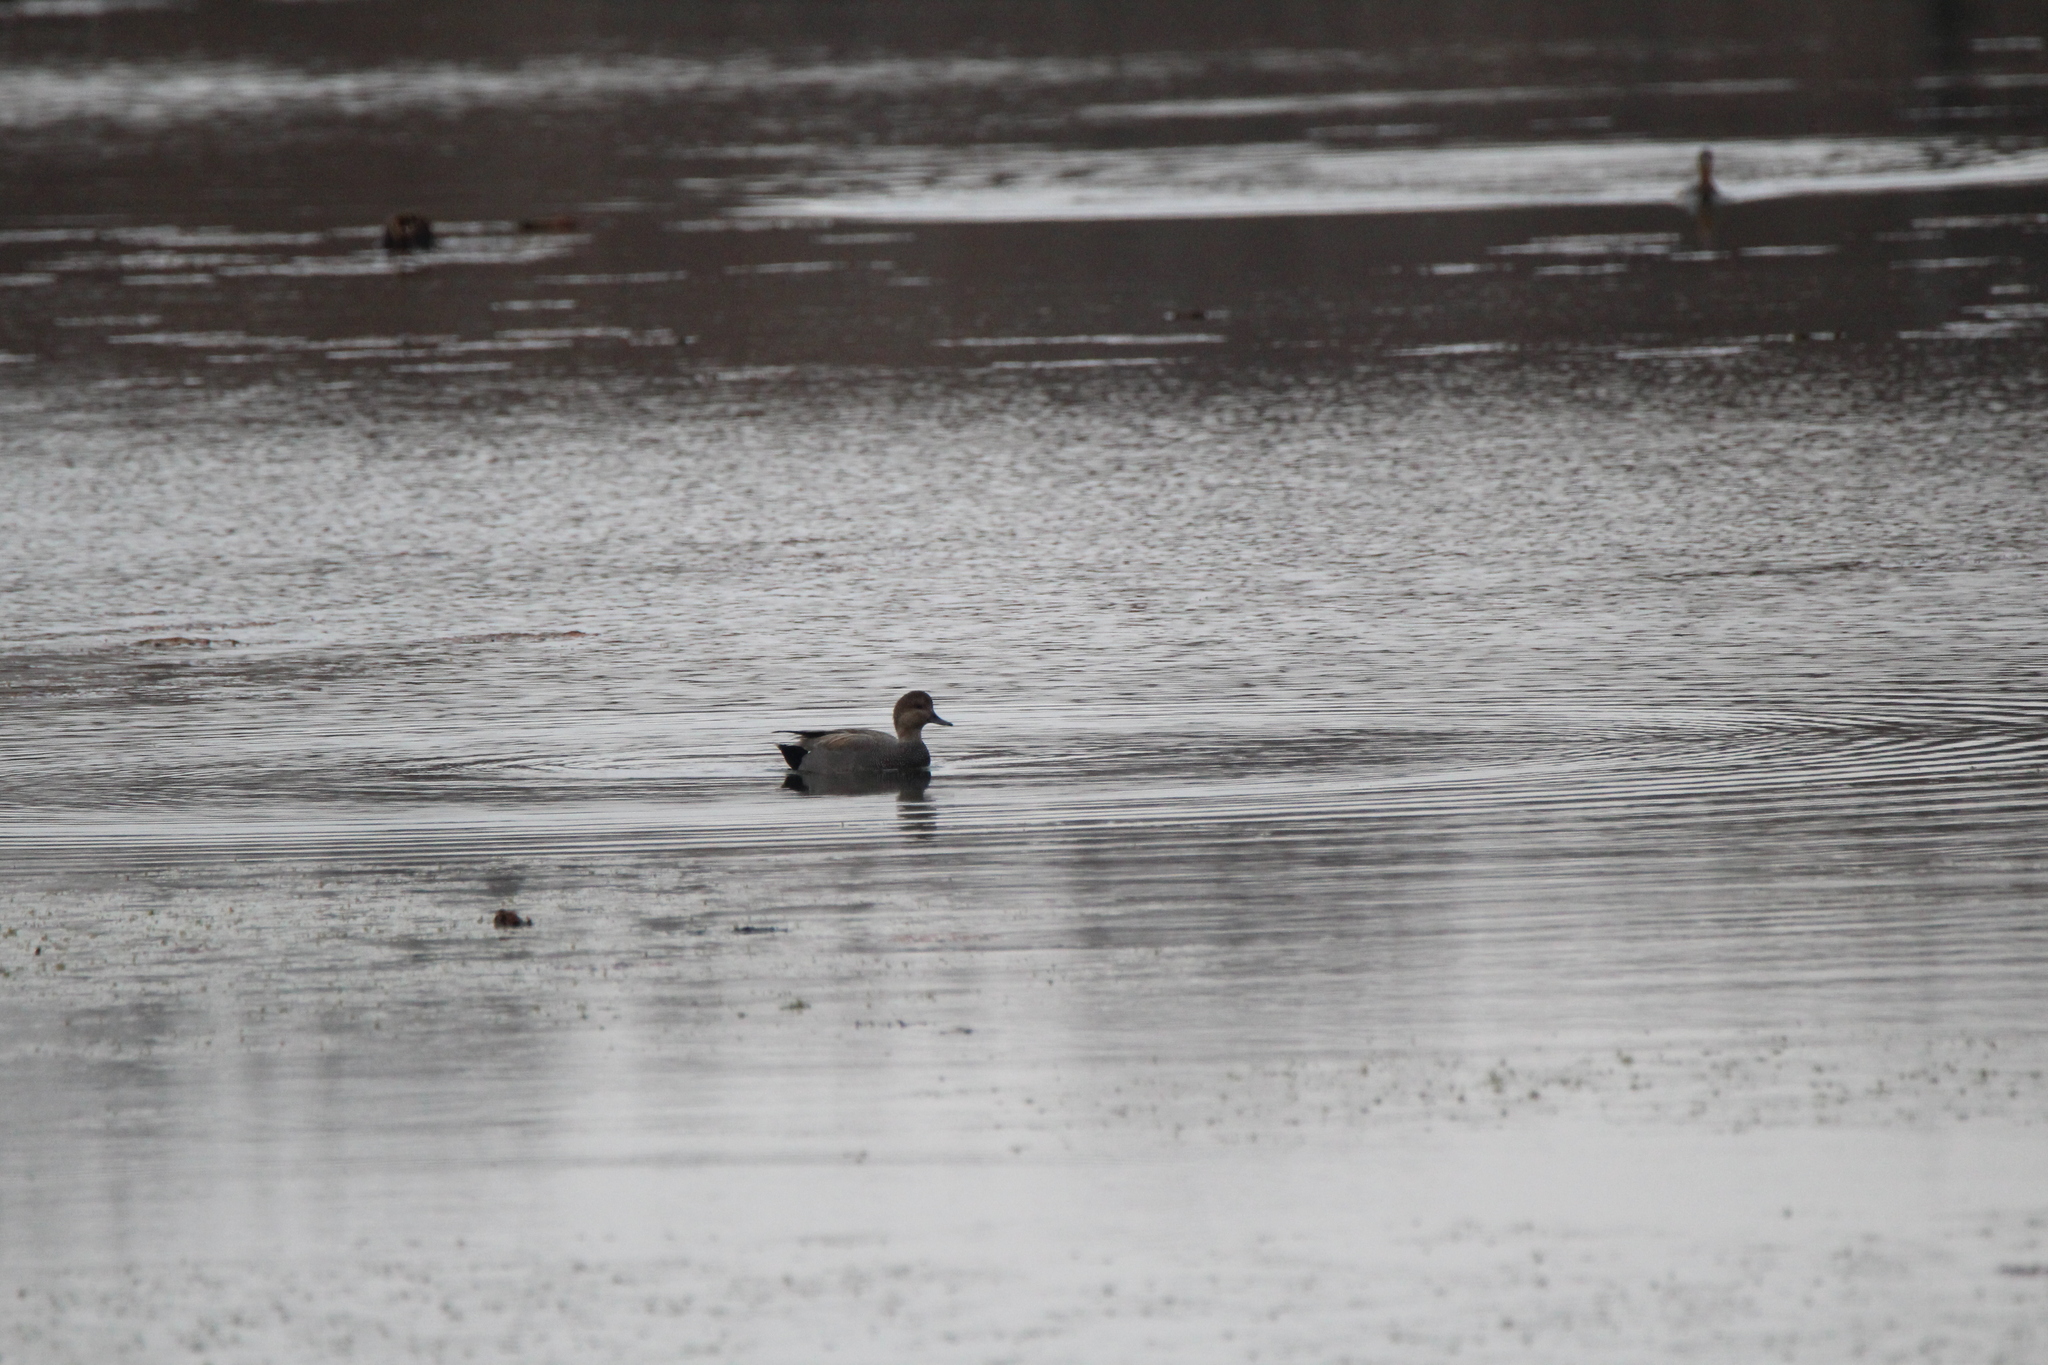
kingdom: Animalia
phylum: Chordata
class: Aves
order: Anseriformes
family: Anatidae
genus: Mareca
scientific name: Mareca strepera
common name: Gadwall
